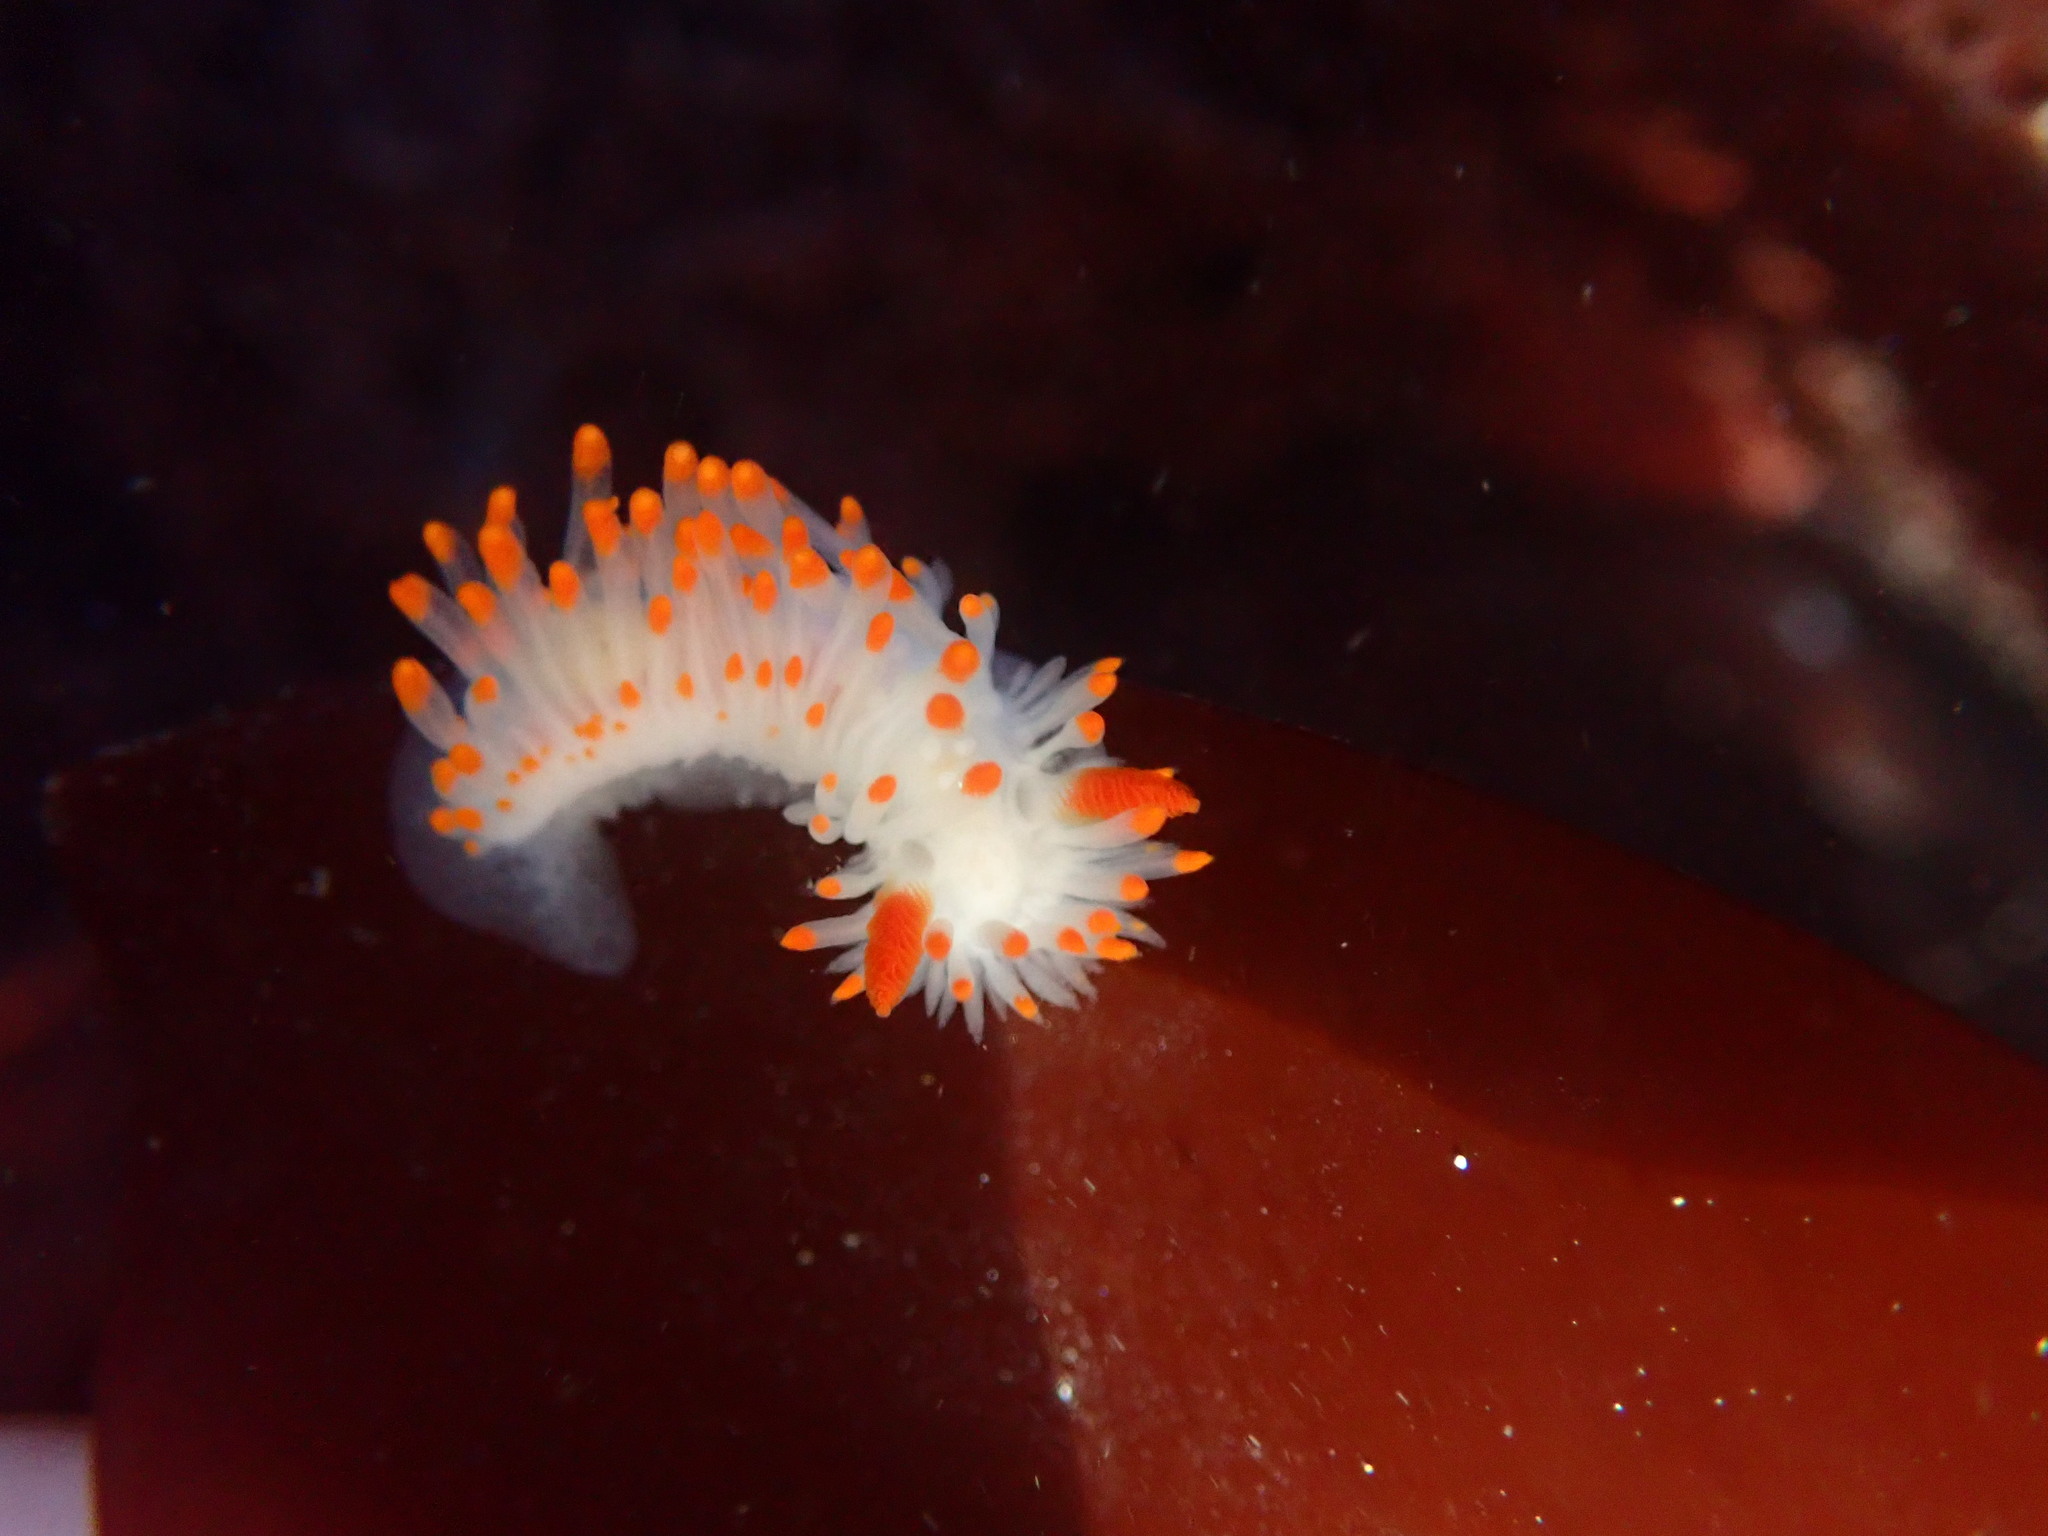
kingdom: Animalia
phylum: Mollusca
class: Gastropoda
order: Nudibranchia
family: Polyceridae
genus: Limacia
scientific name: Limacia cockerelli
